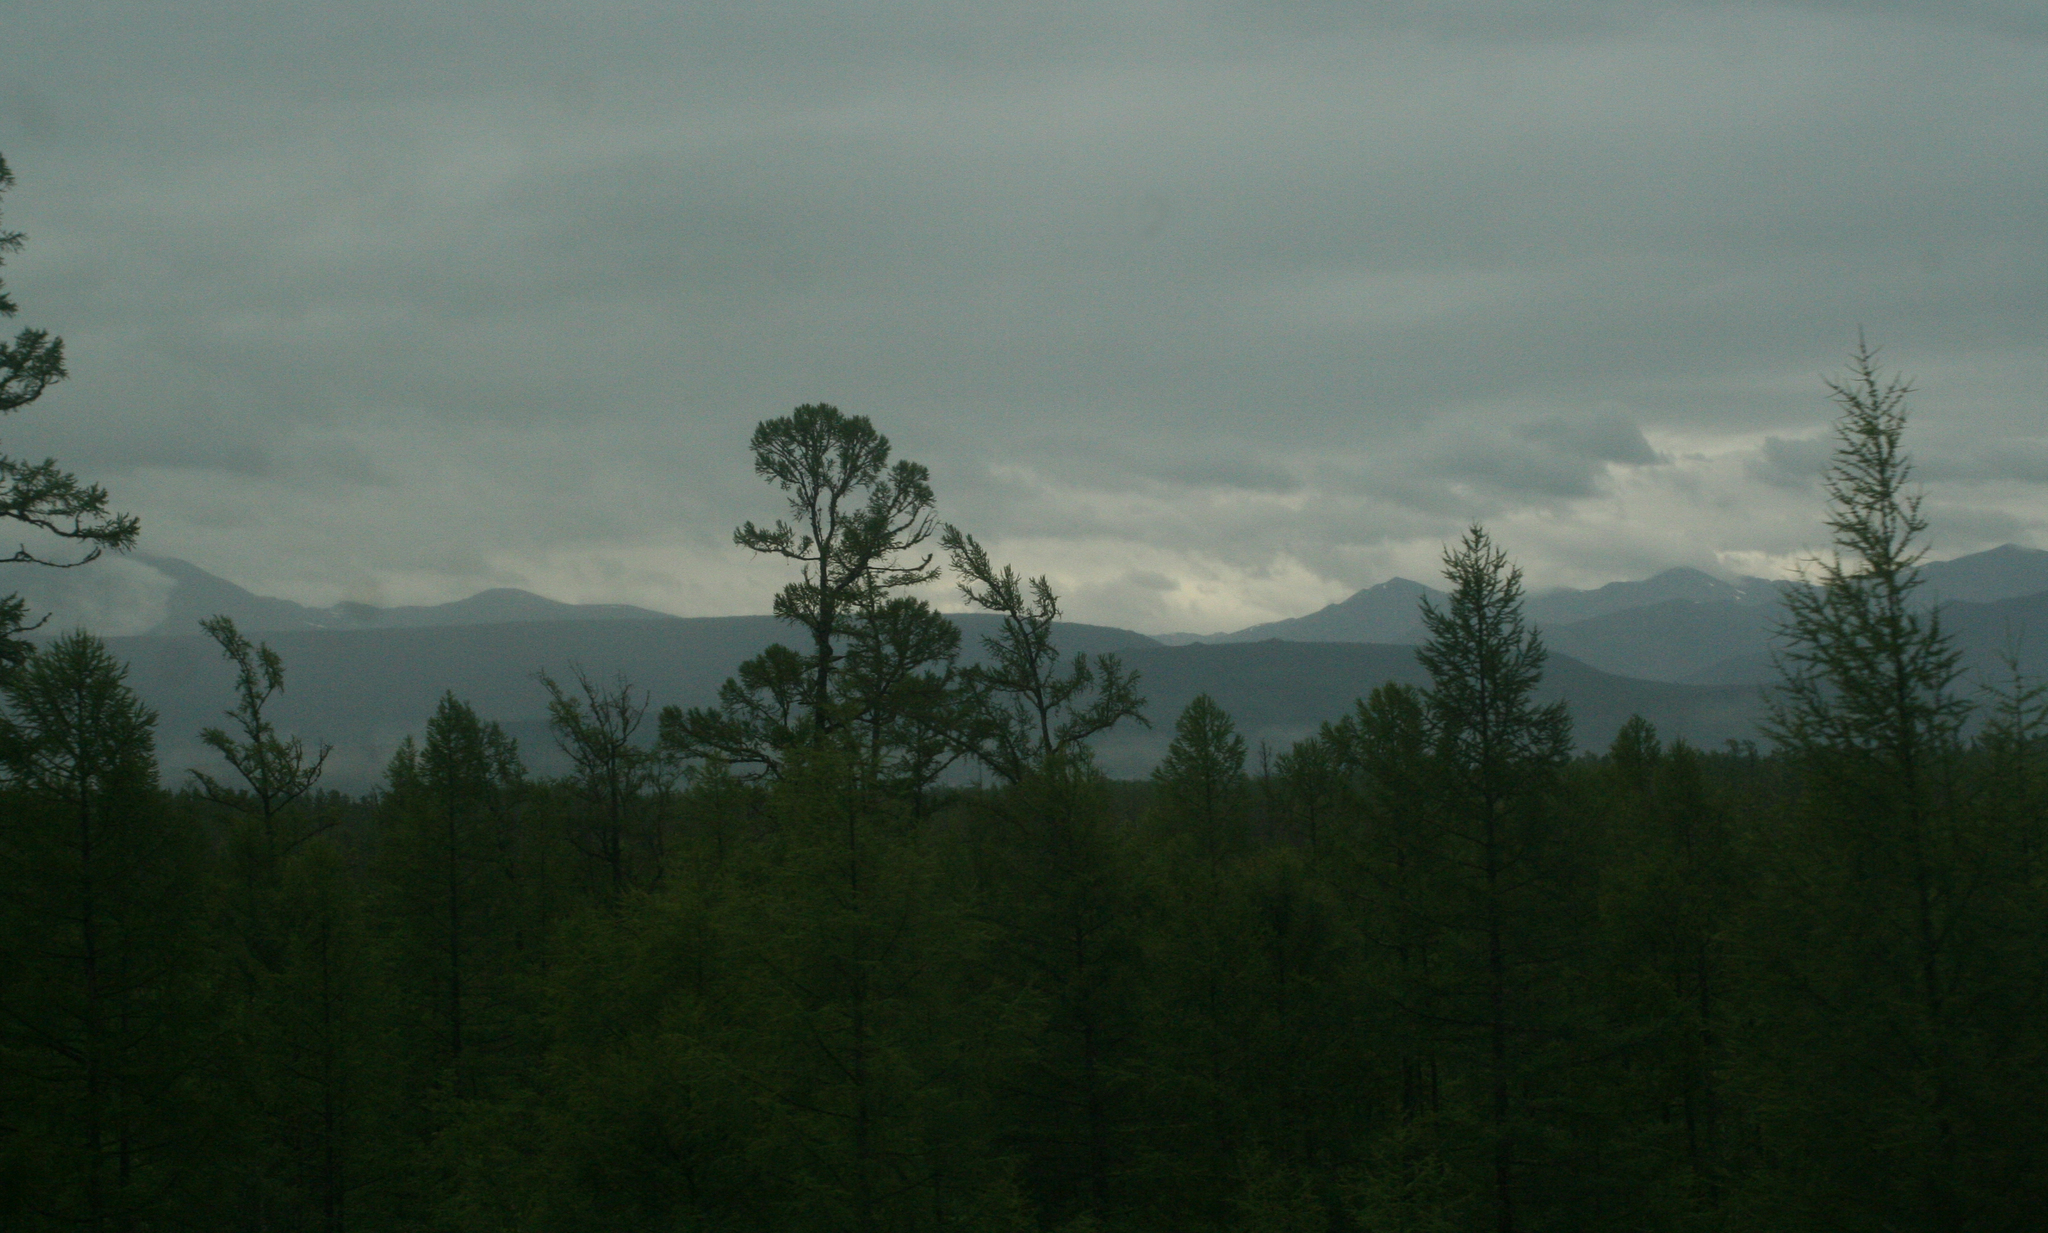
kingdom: Plantae
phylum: Tracheophyta
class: Pinopsida
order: Pinales
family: Pinaceae
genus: Larix
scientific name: Larix gmelinii
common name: Dahurian larch
